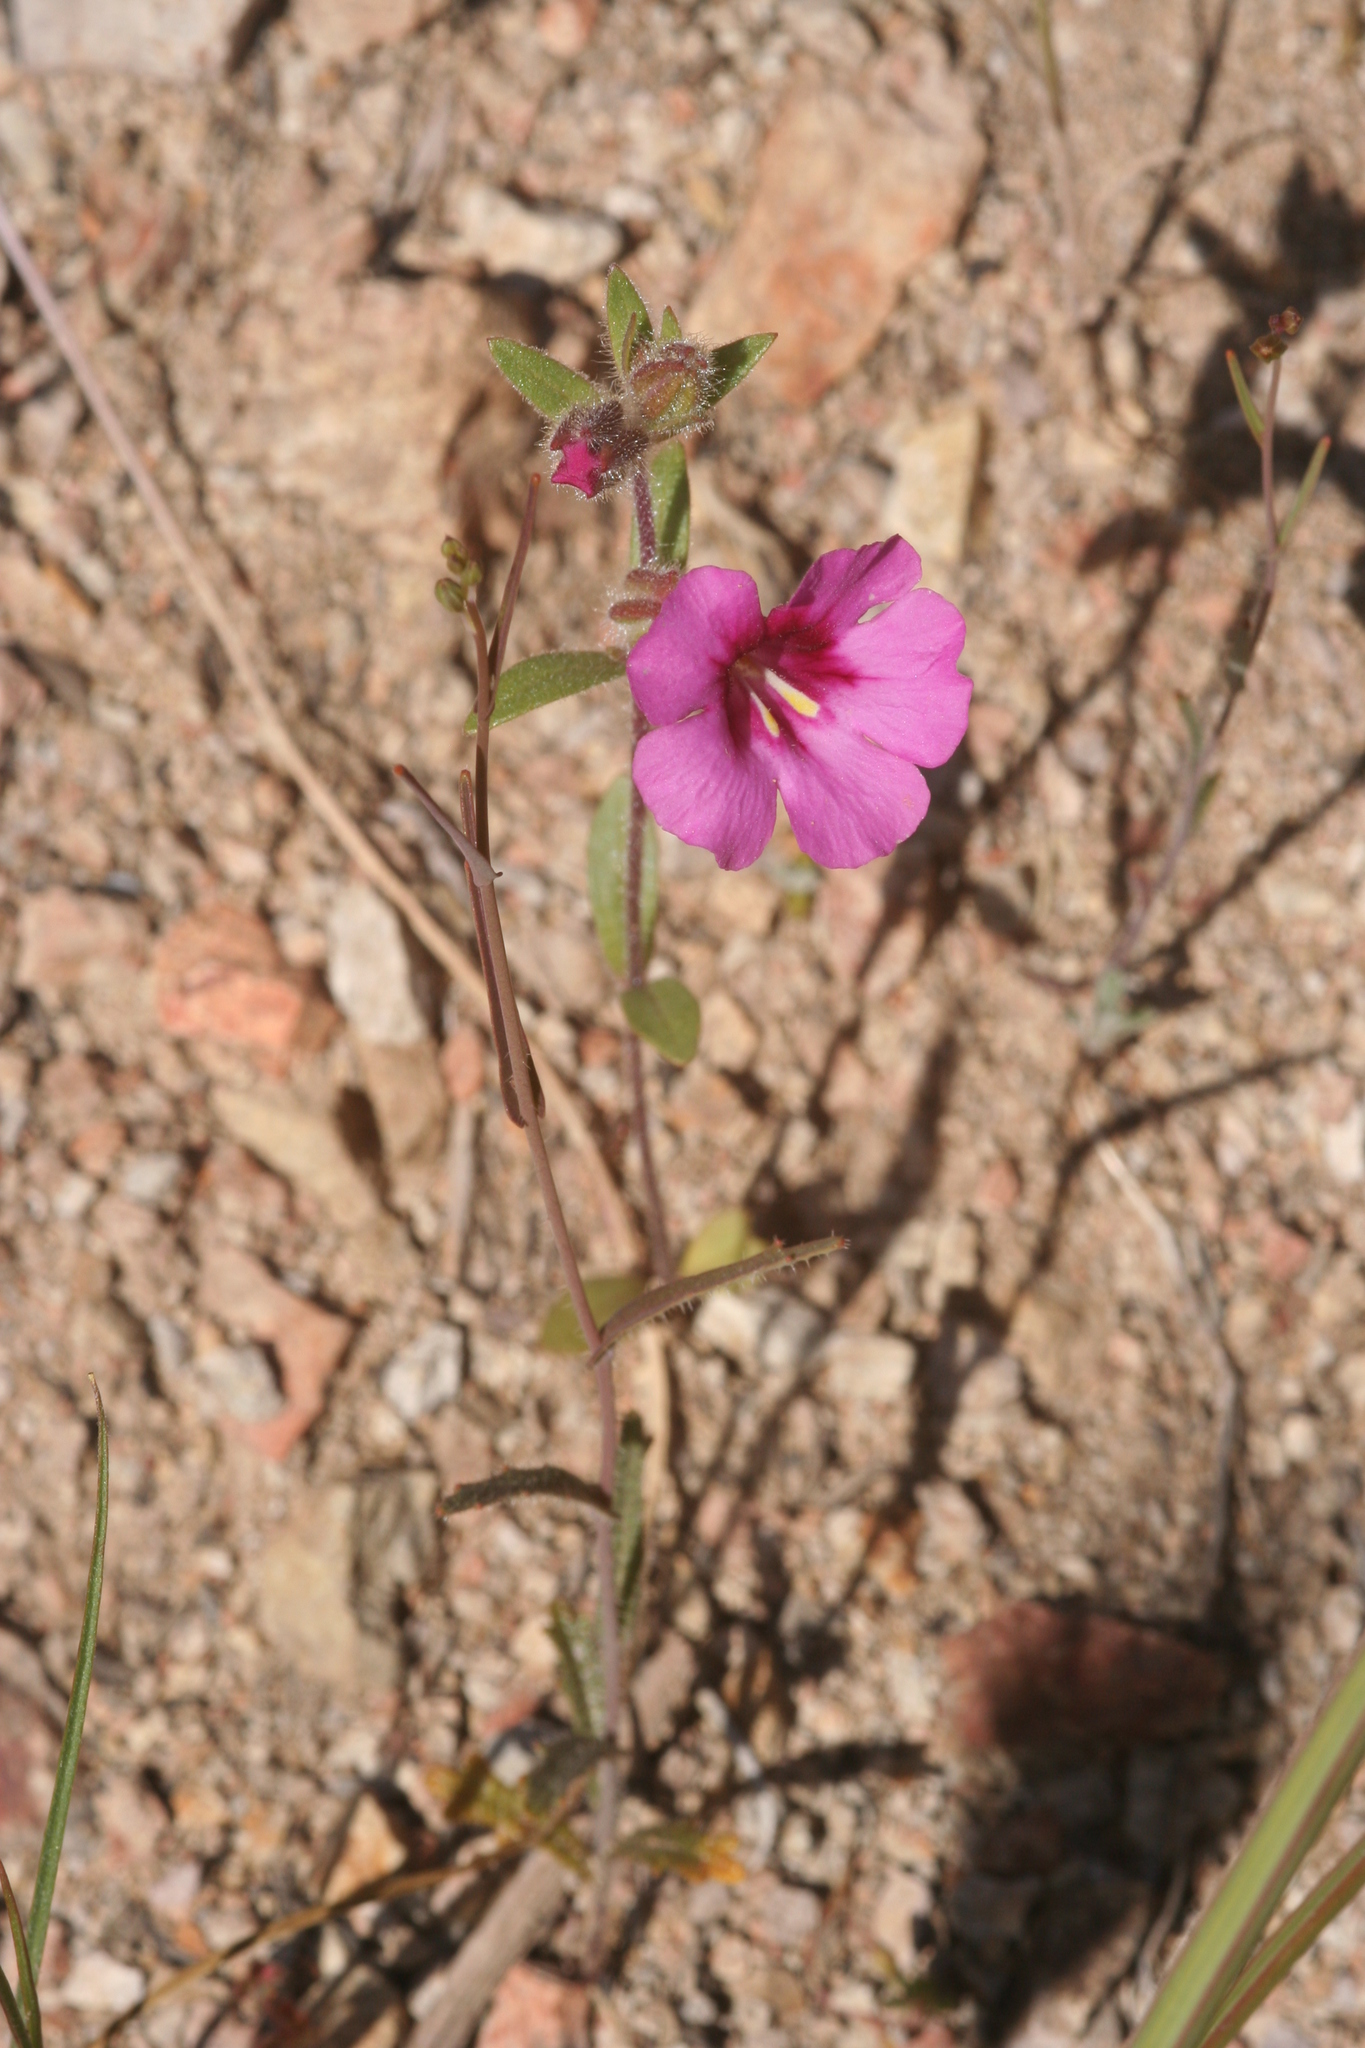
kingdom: Plantae
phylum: Tracheophyta
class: Magnoliopsida
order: Lamiales
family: Phrymaceae
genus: Diplacus
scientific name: Diplacus fremontii
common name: Fremont's monkey-flower
